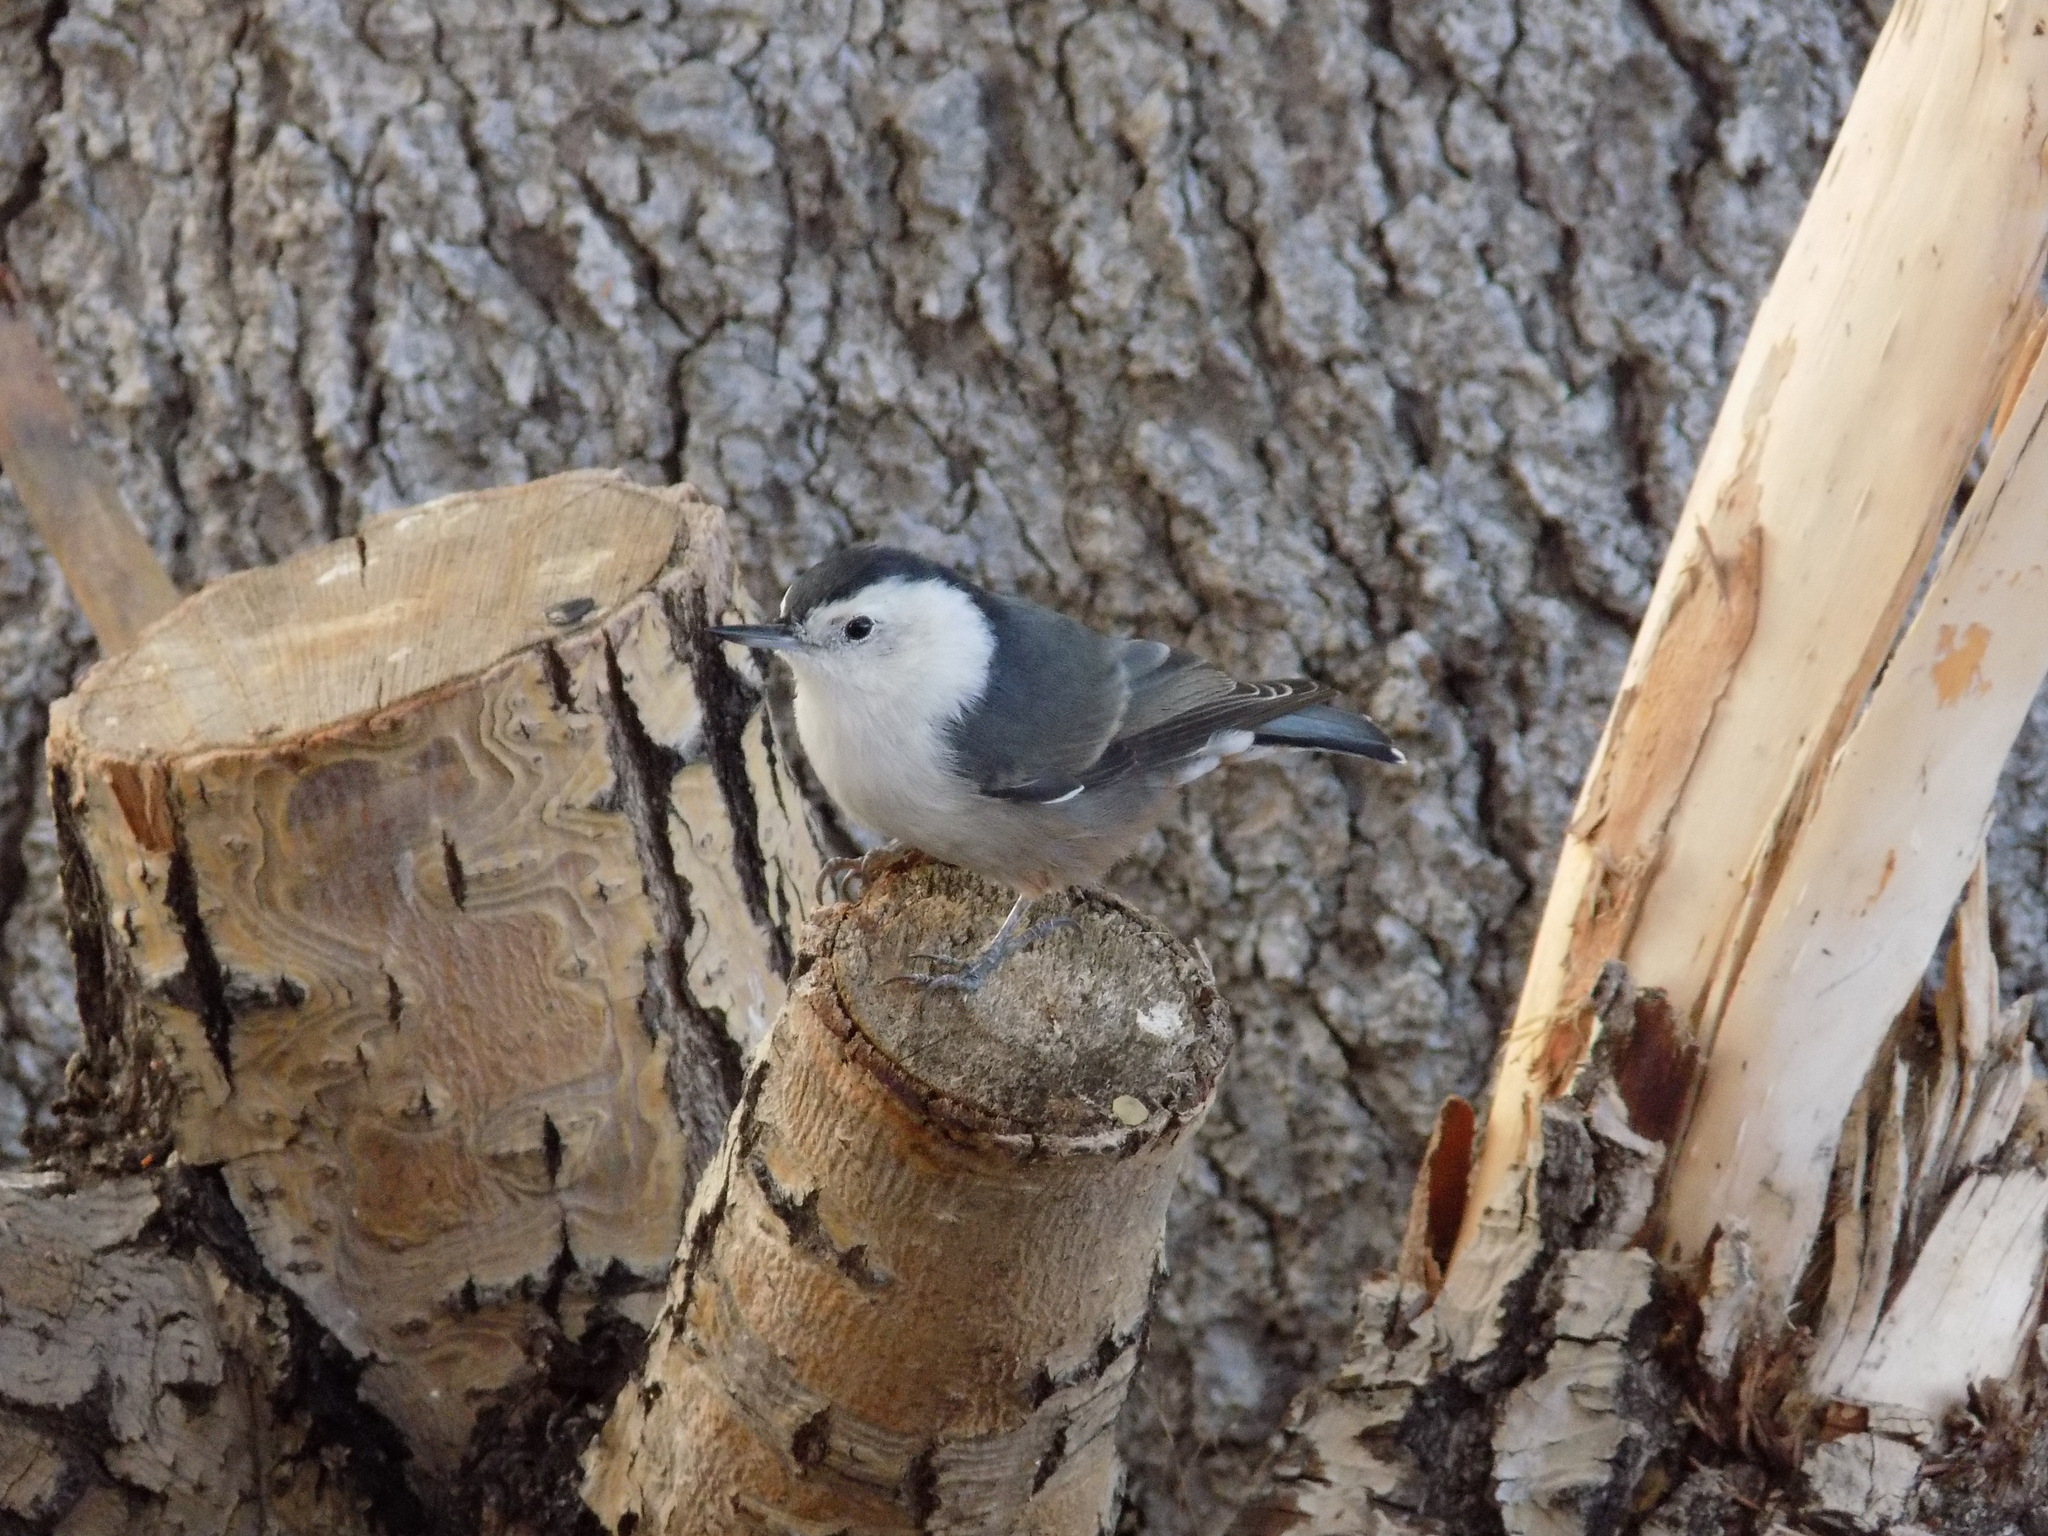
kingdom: Animalia
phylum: Chordata
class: Aves
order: Passeriformes
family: Sittidae
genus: Sitta
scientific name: Sitta carolinensis
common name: White-breasted nuthatch
